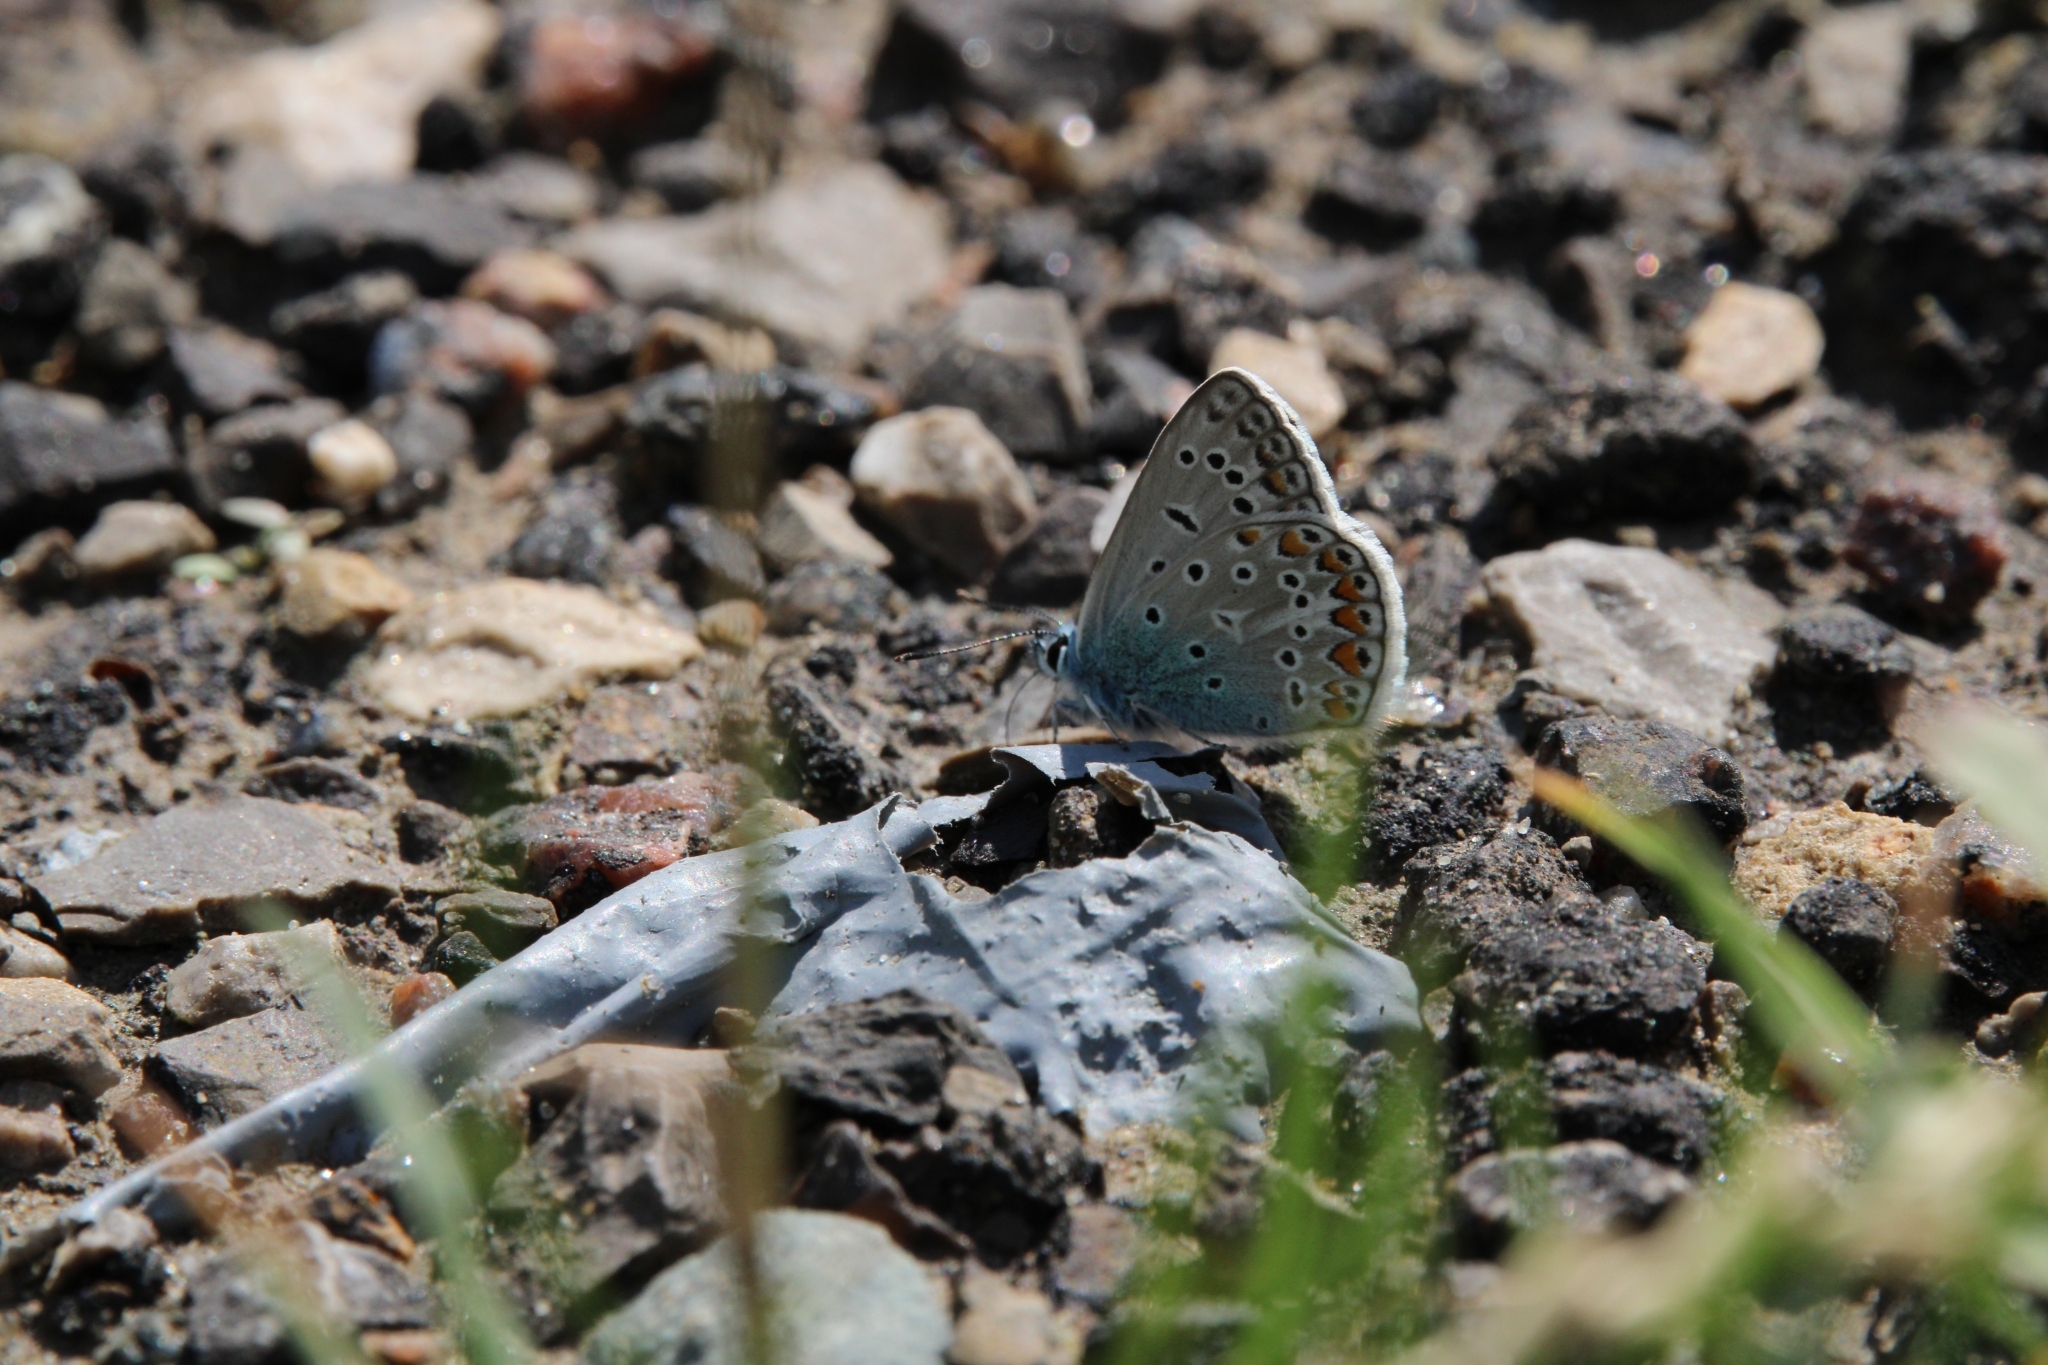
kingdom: Animalia
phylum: Arthropoda
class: Insecta
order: Lepidoptera
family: Lycaenidae
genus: Polyommatus
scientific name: Polyommatus icarus
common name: Common blue
